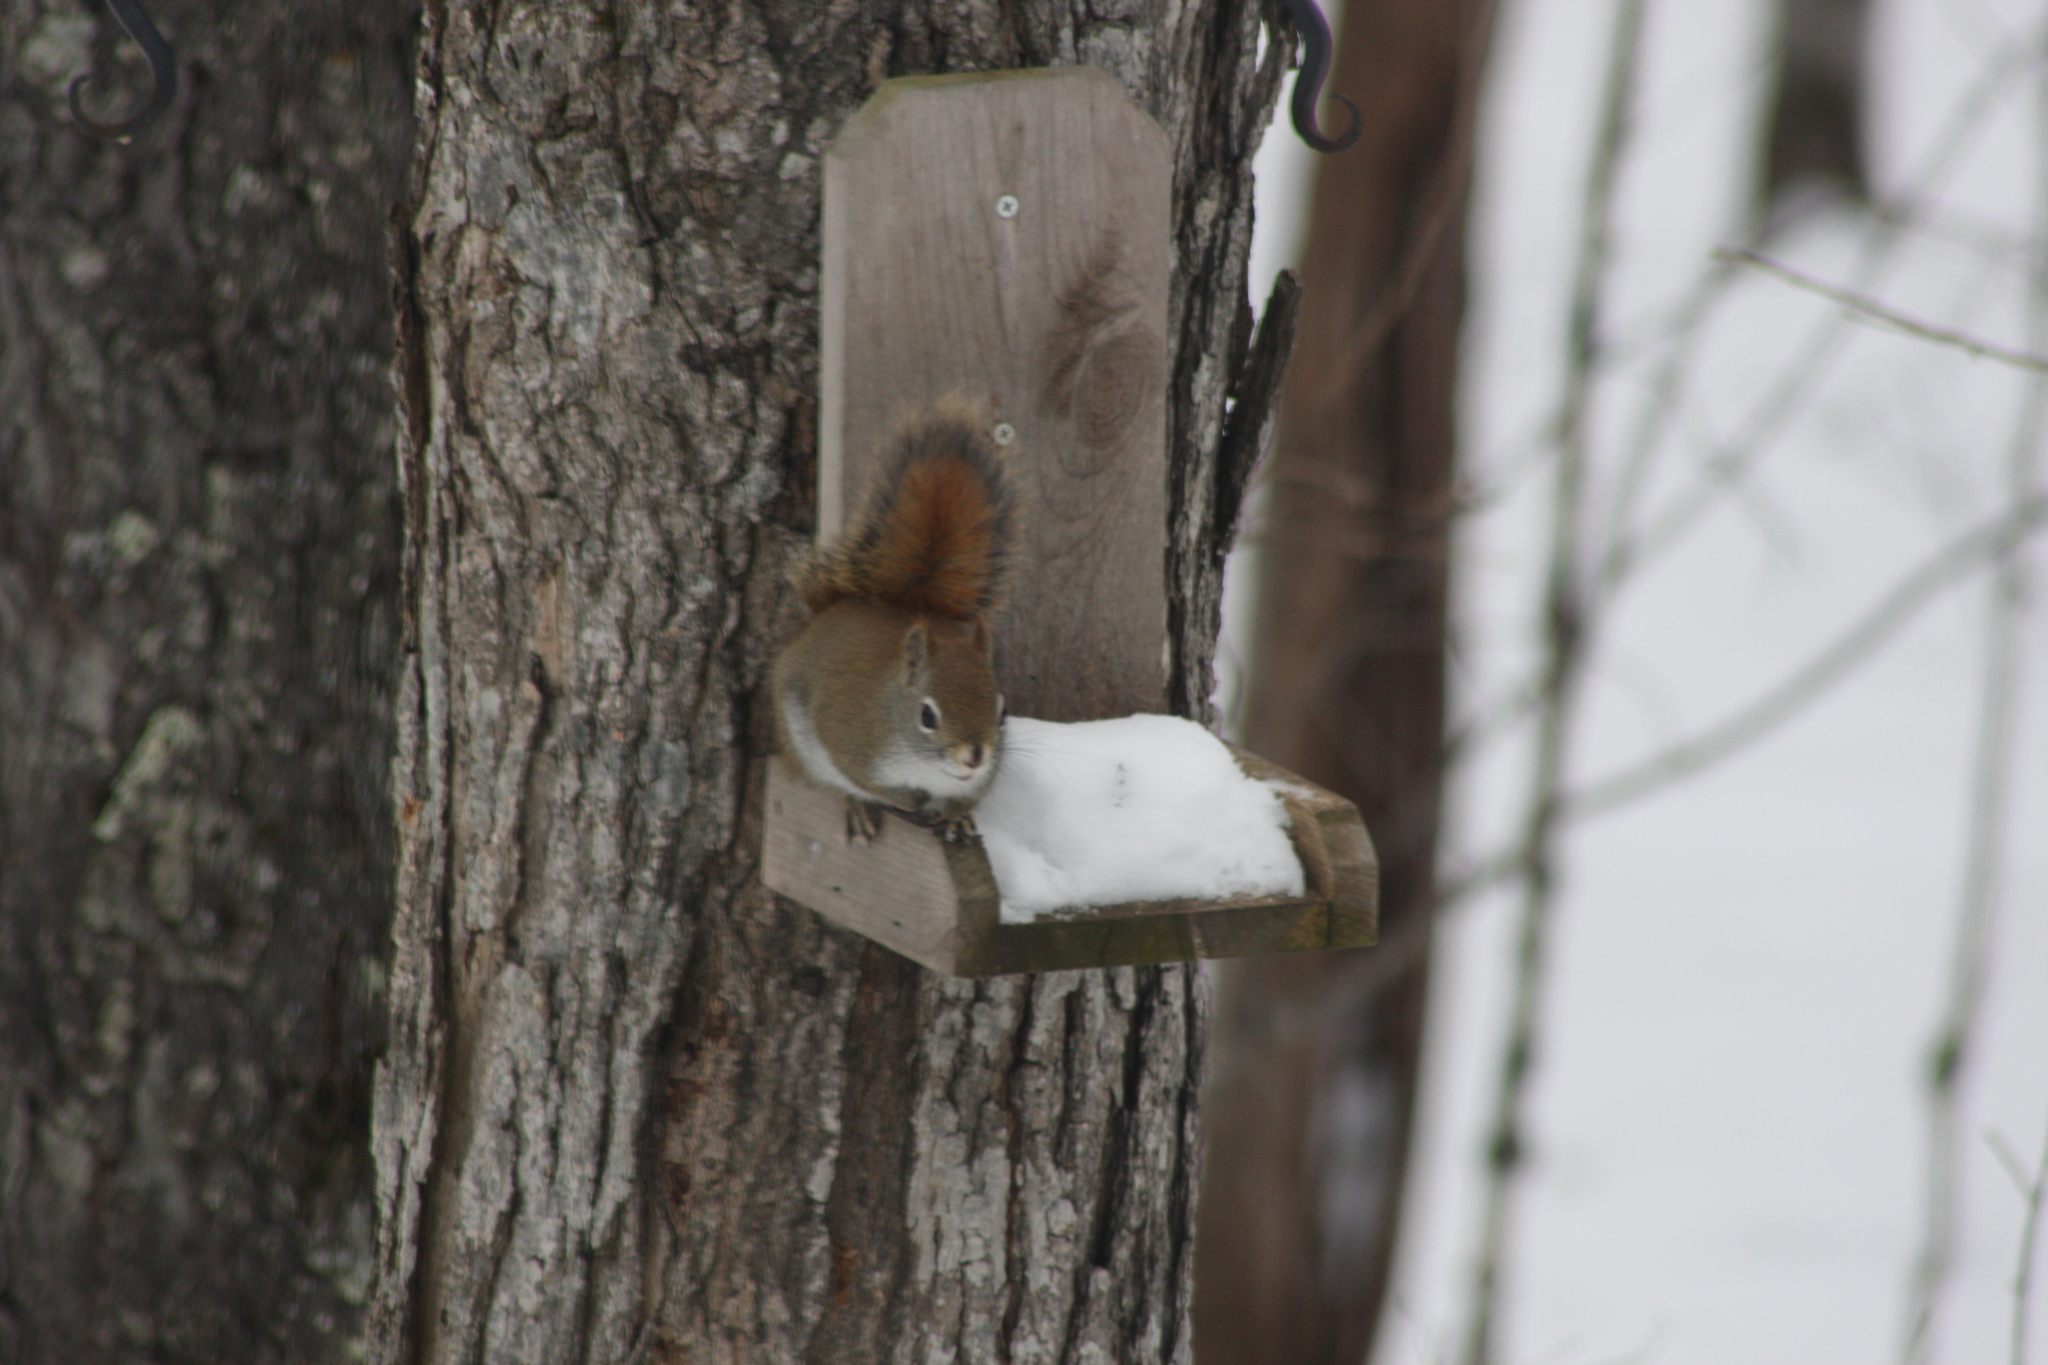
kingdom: Animalia
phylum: Chordata
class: Mammalia
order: Rodentia
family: Sciuridae
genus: Tamiasciurus
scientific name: Tamiasciurus hudsonicus
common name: Red squirrel
